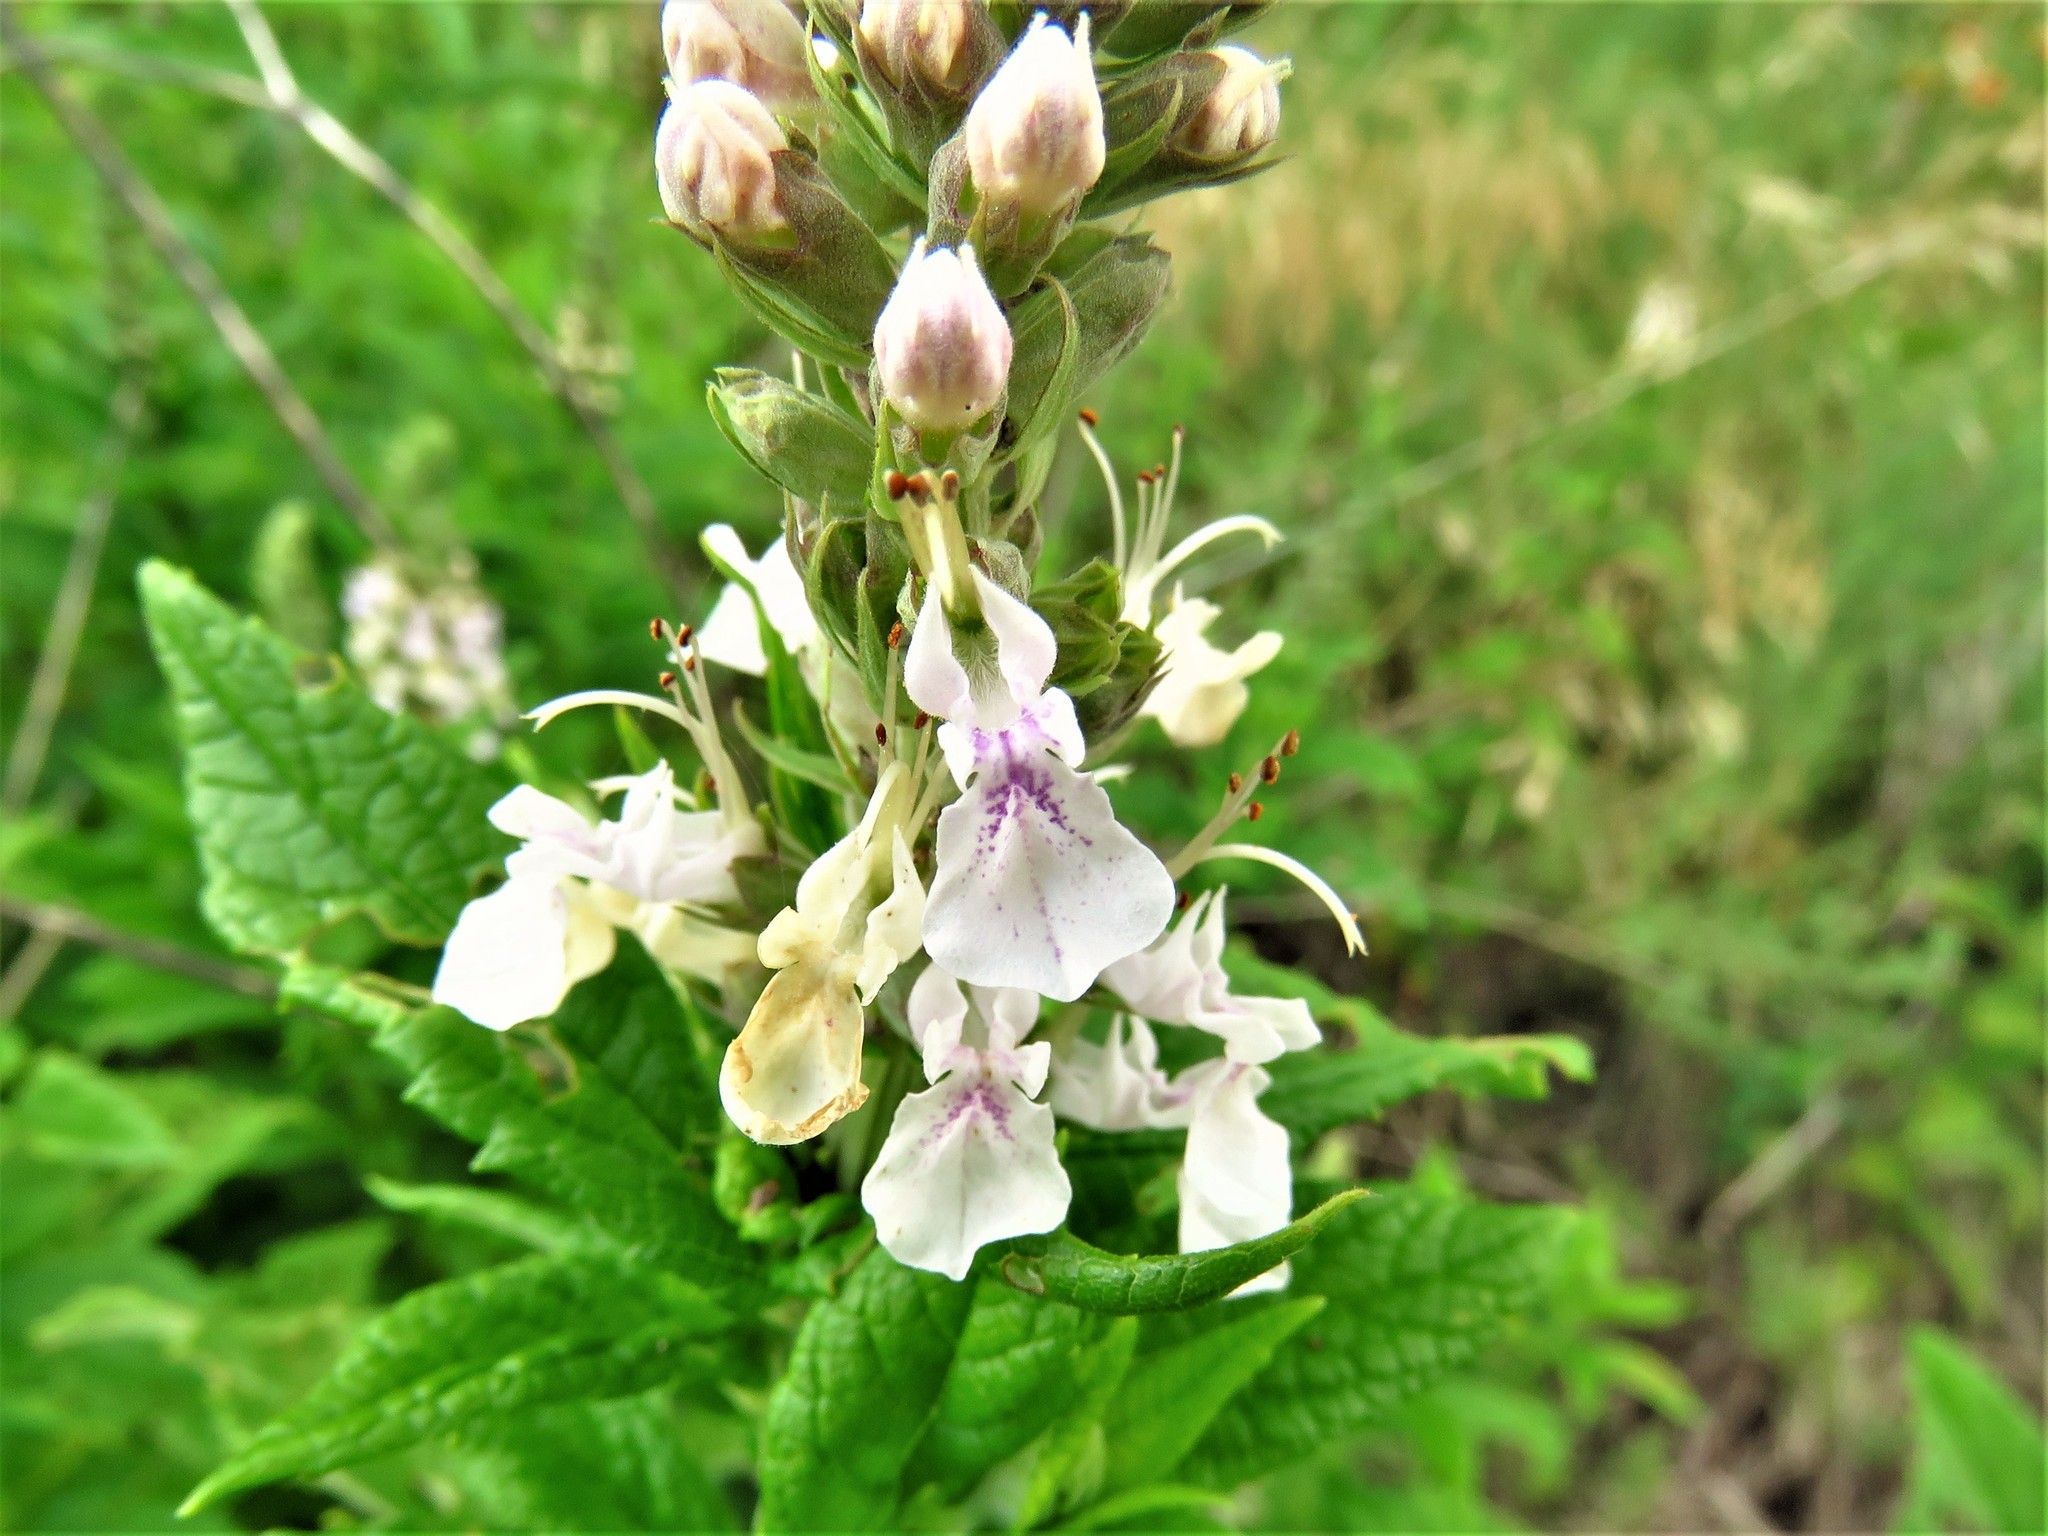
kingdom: Plantae
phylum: Tracheophyta
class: Magnoliopsida
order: Lamiales
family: Lamiaceae
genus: Teucrium
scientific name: Teucrium canadense
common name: American germander
